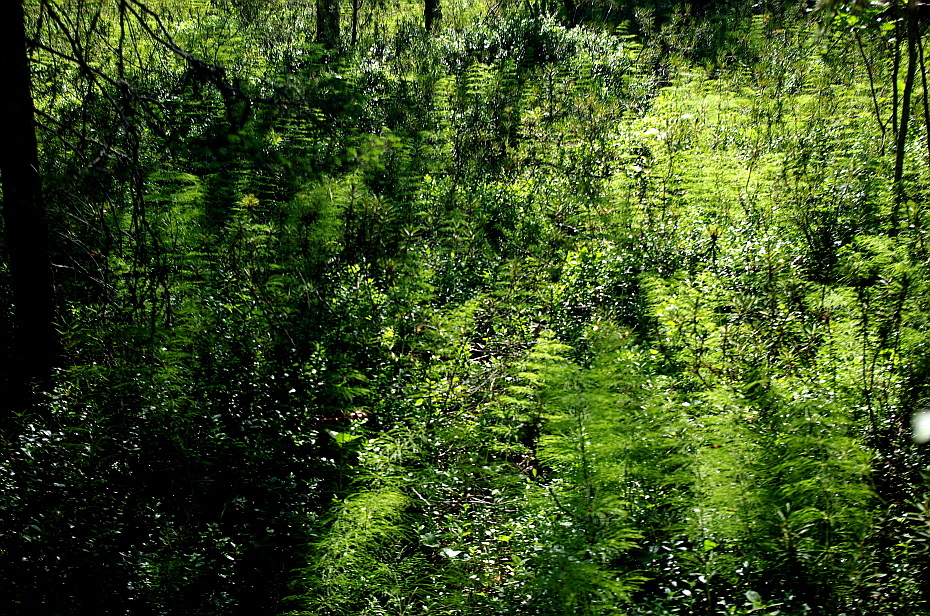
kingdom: Plantae
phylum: Tracheophyta
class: Polypodiopsida
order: Equisetales
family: Equisetaceae
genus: Equisetum
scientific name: Equisetum sylvaticum
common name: Wood horsetail
